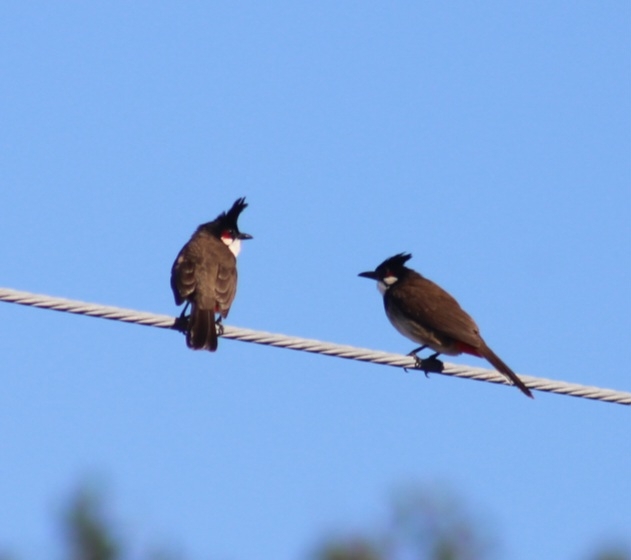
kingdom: Animalia
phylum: Chordata
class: Aves
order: Passeriformes
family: Pycnonotidae
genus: Pycnonotus
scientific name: Pycnonotus jocosus
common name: Red-whiskered bulbul
